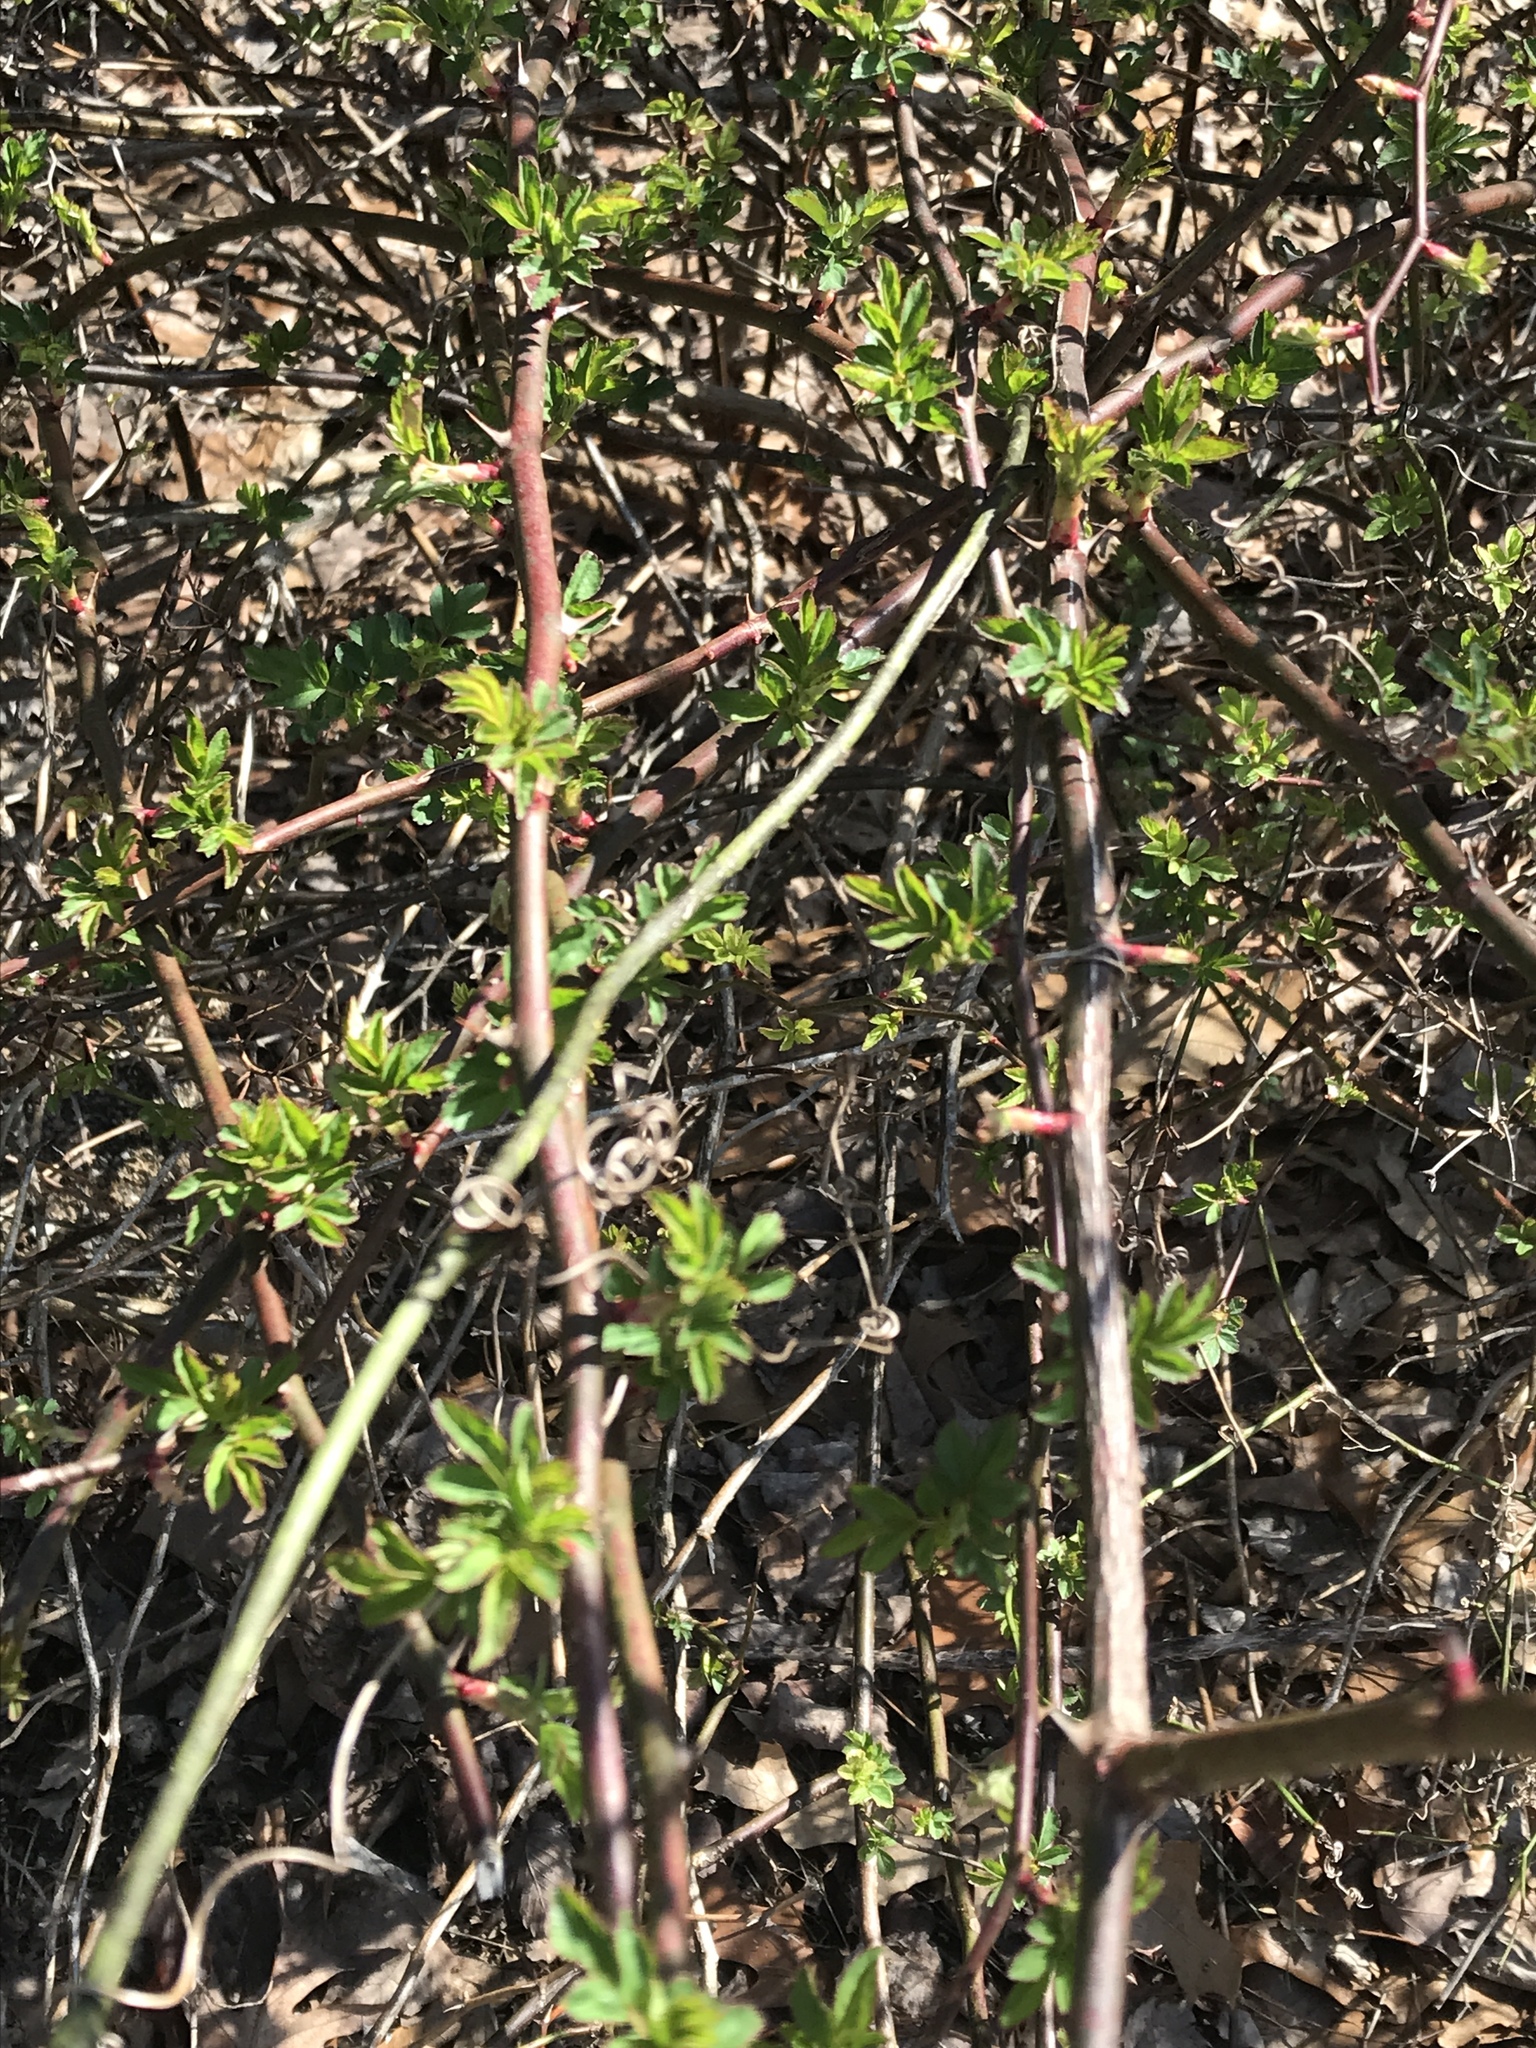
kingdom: Plantae
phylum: Tracheophyta
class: Magnoliopsida
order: Rosales
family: Rosaceae
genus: Rosa
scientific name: Rosa multiflora
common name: Multiflora rose
